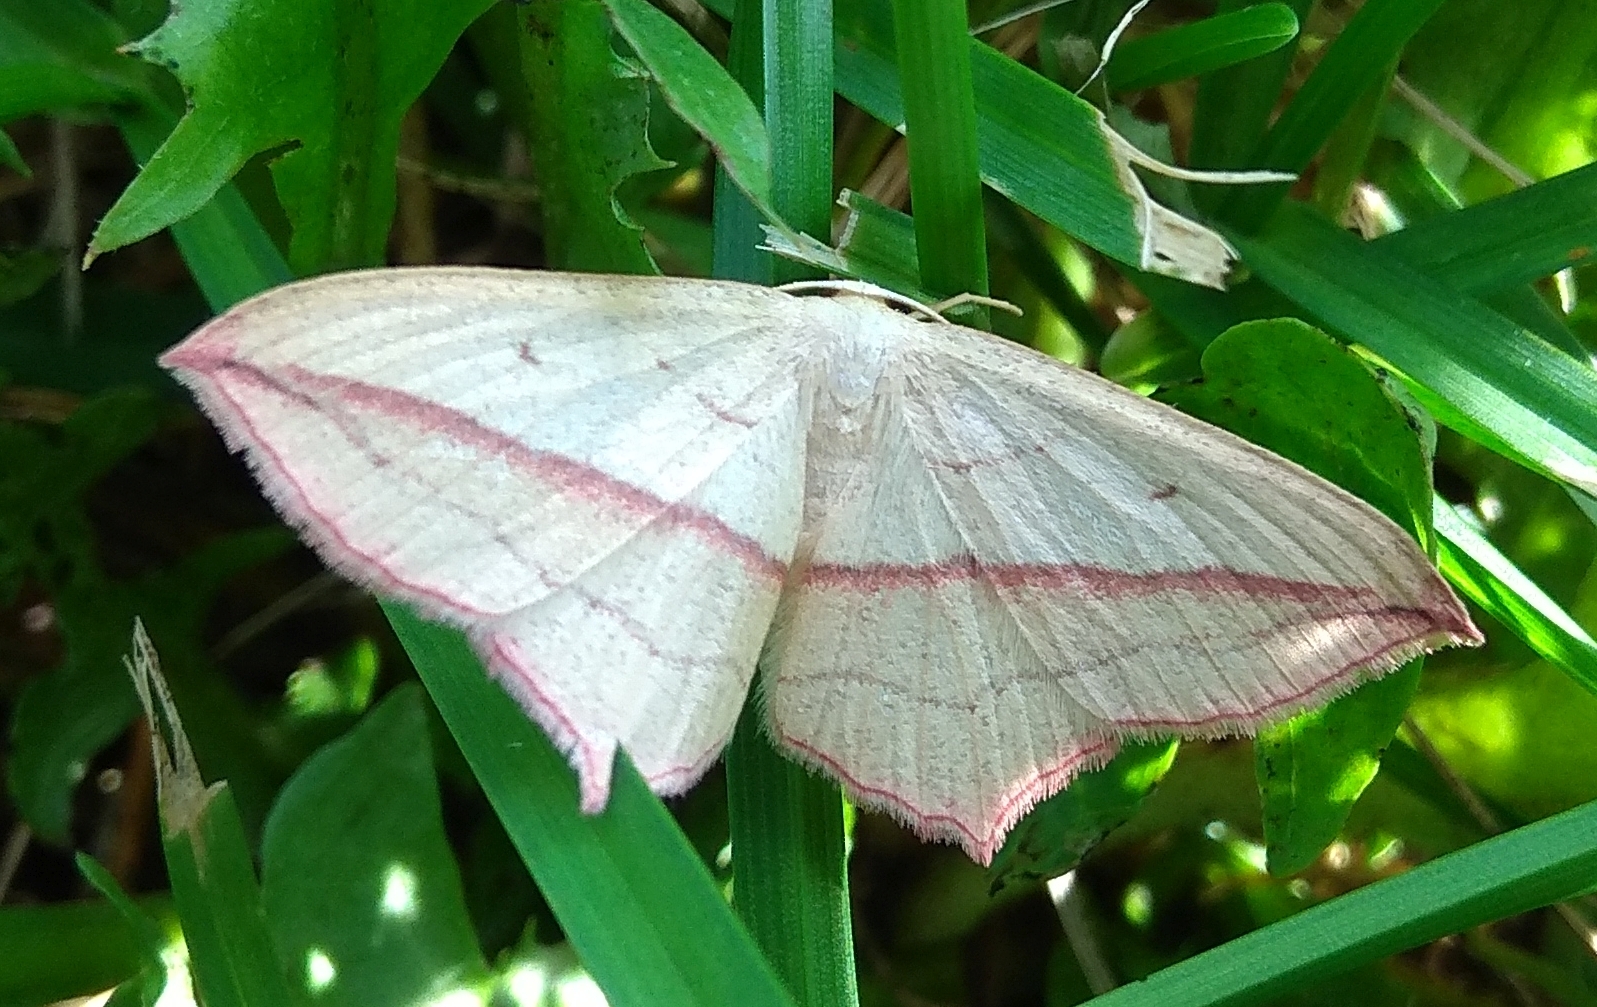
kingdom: Animalia
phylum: Arthropoda
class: Insecta
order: Lepidoptera
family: Geometridae
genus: Timandra
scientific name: Timandra comae
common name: Blood-vein
